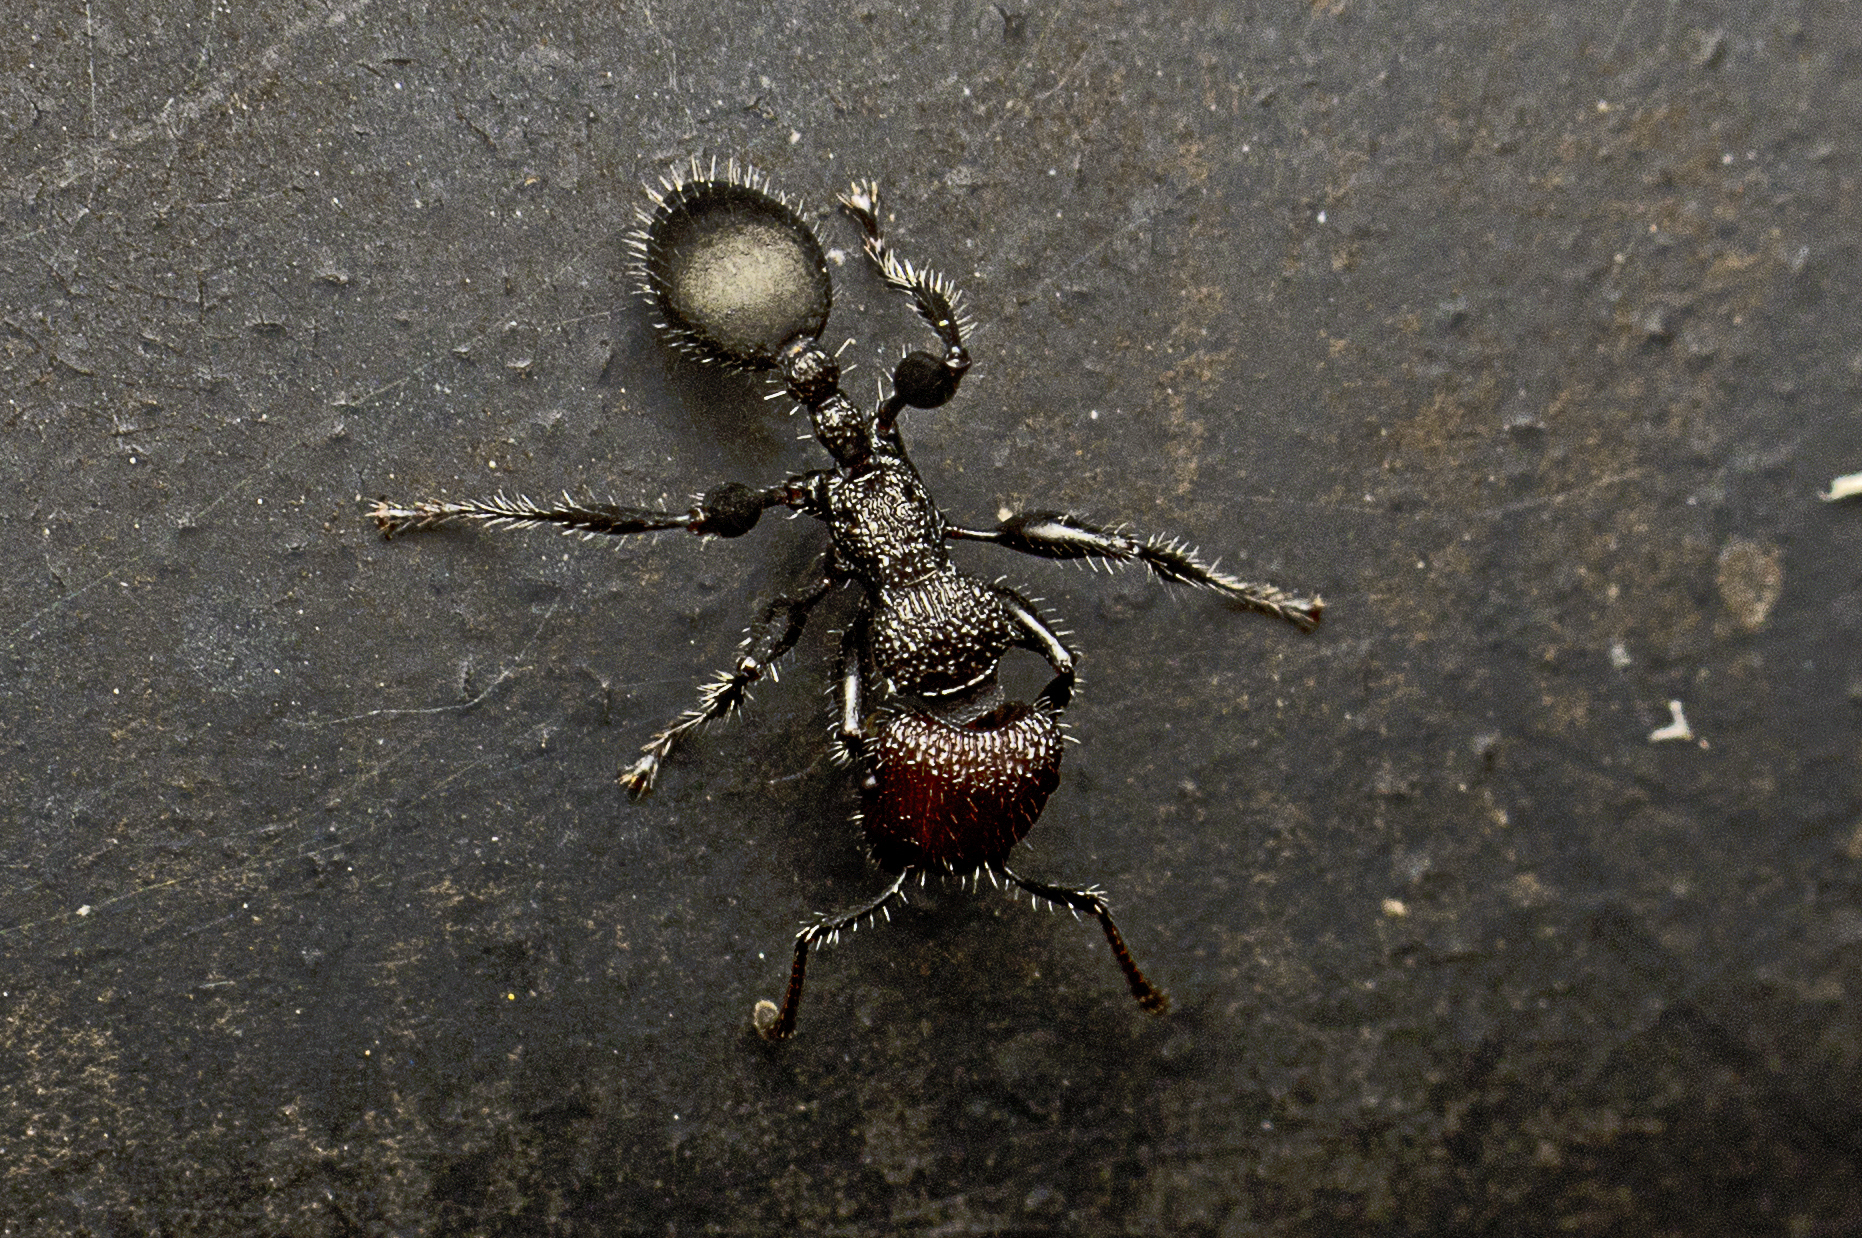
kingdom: Animalia
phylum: Arthropoda
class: Insecta
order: Hymenoptera
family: Formicidae
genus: Podomyrma
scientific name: Podomyrma micans
